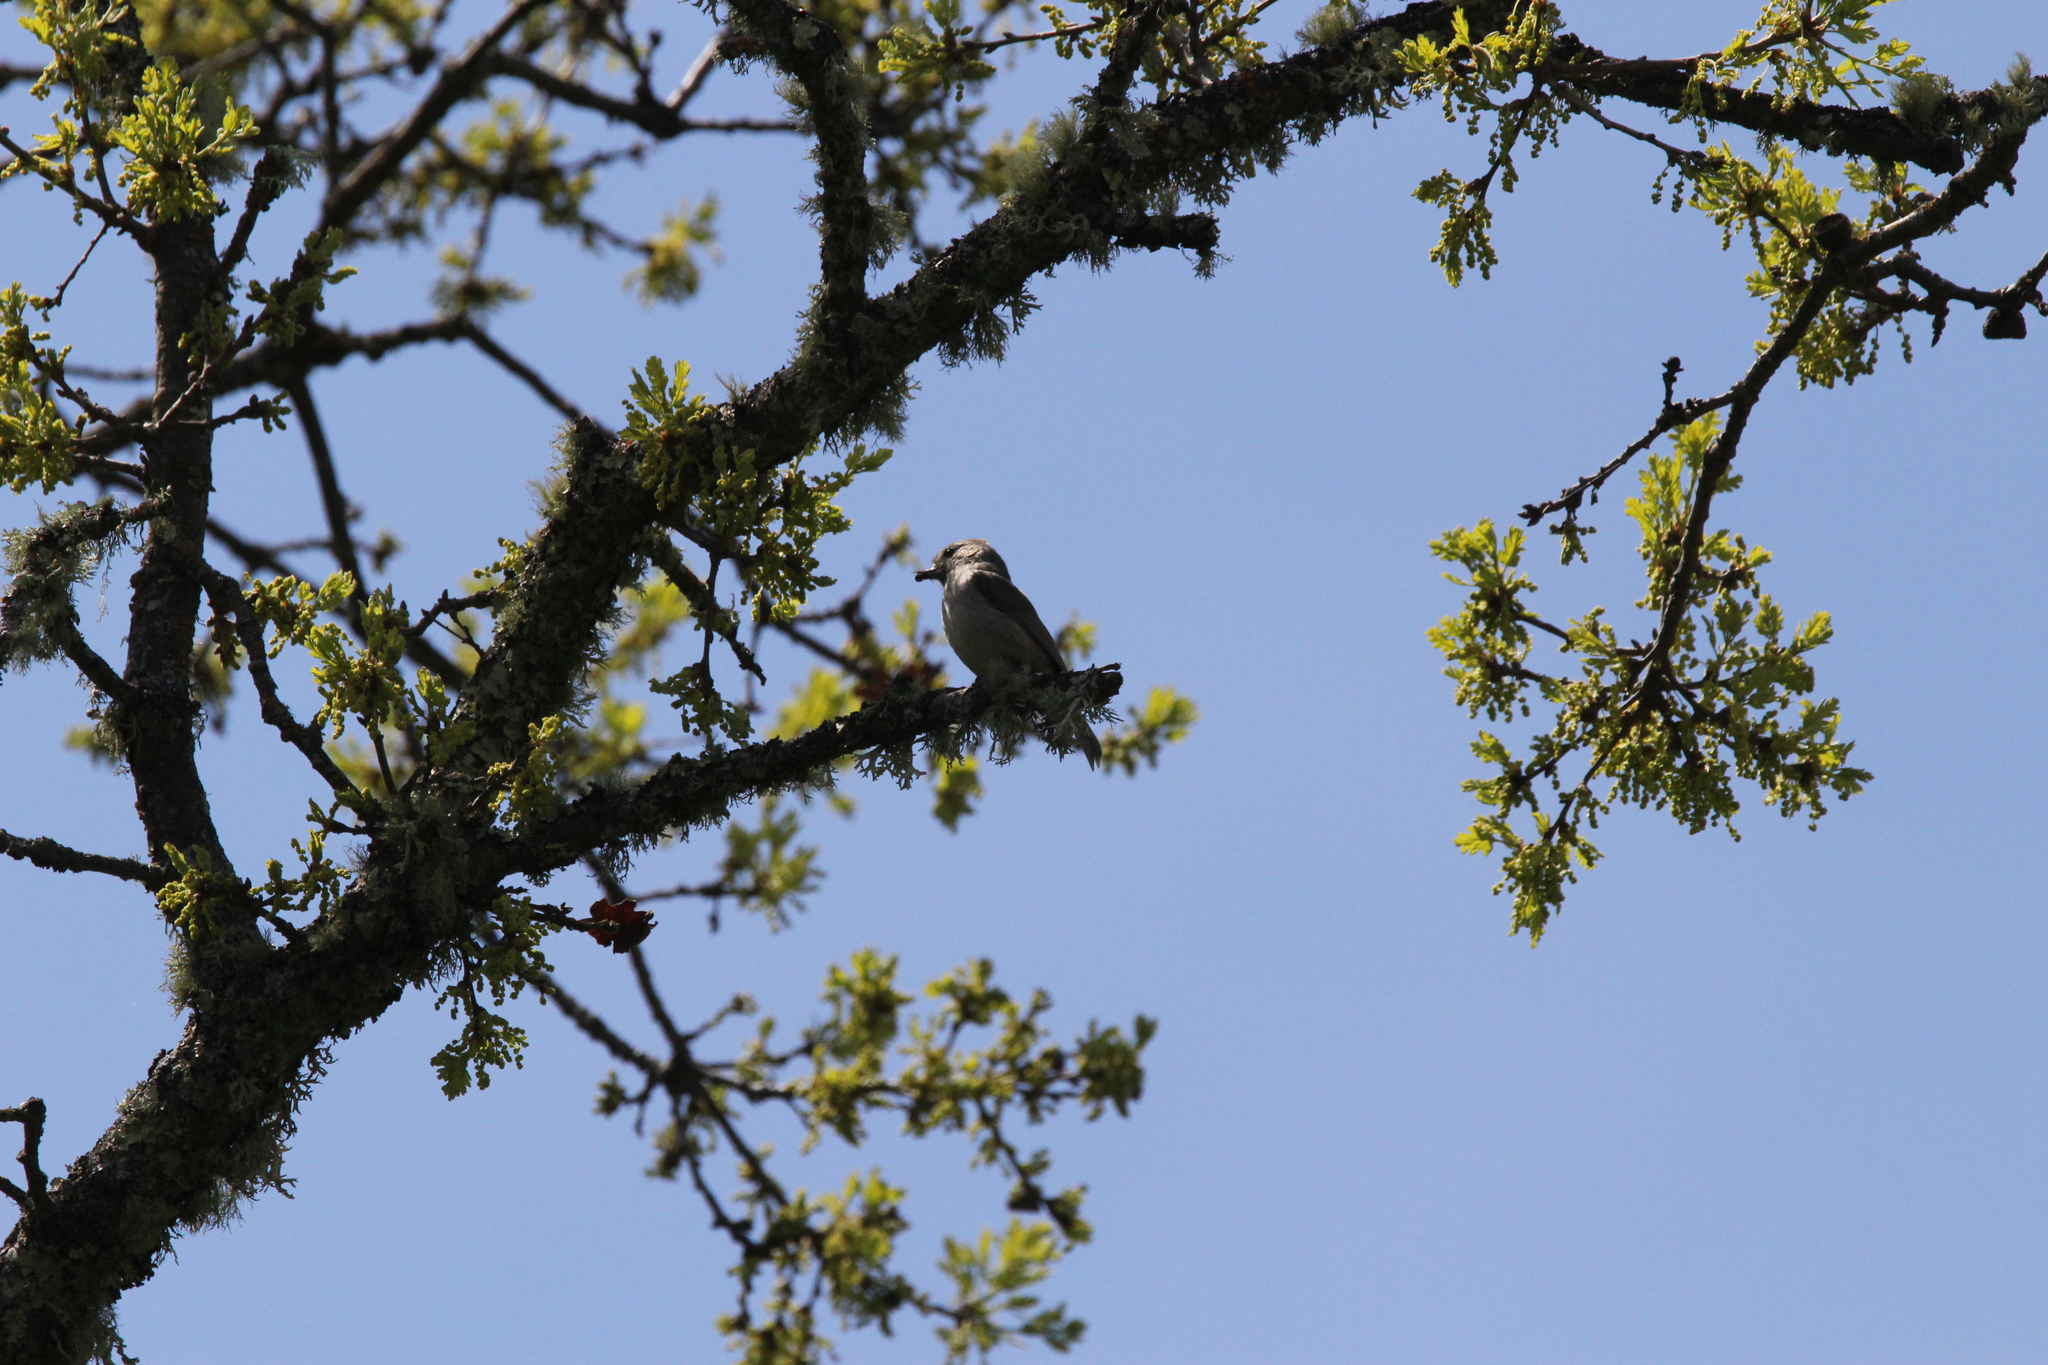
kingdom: Animalia
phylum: Chordata
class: Aves
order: Passeriformes
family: Paridae
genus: Baeolophus
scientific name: Baeolophus inornatus
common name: Oak titmouse
